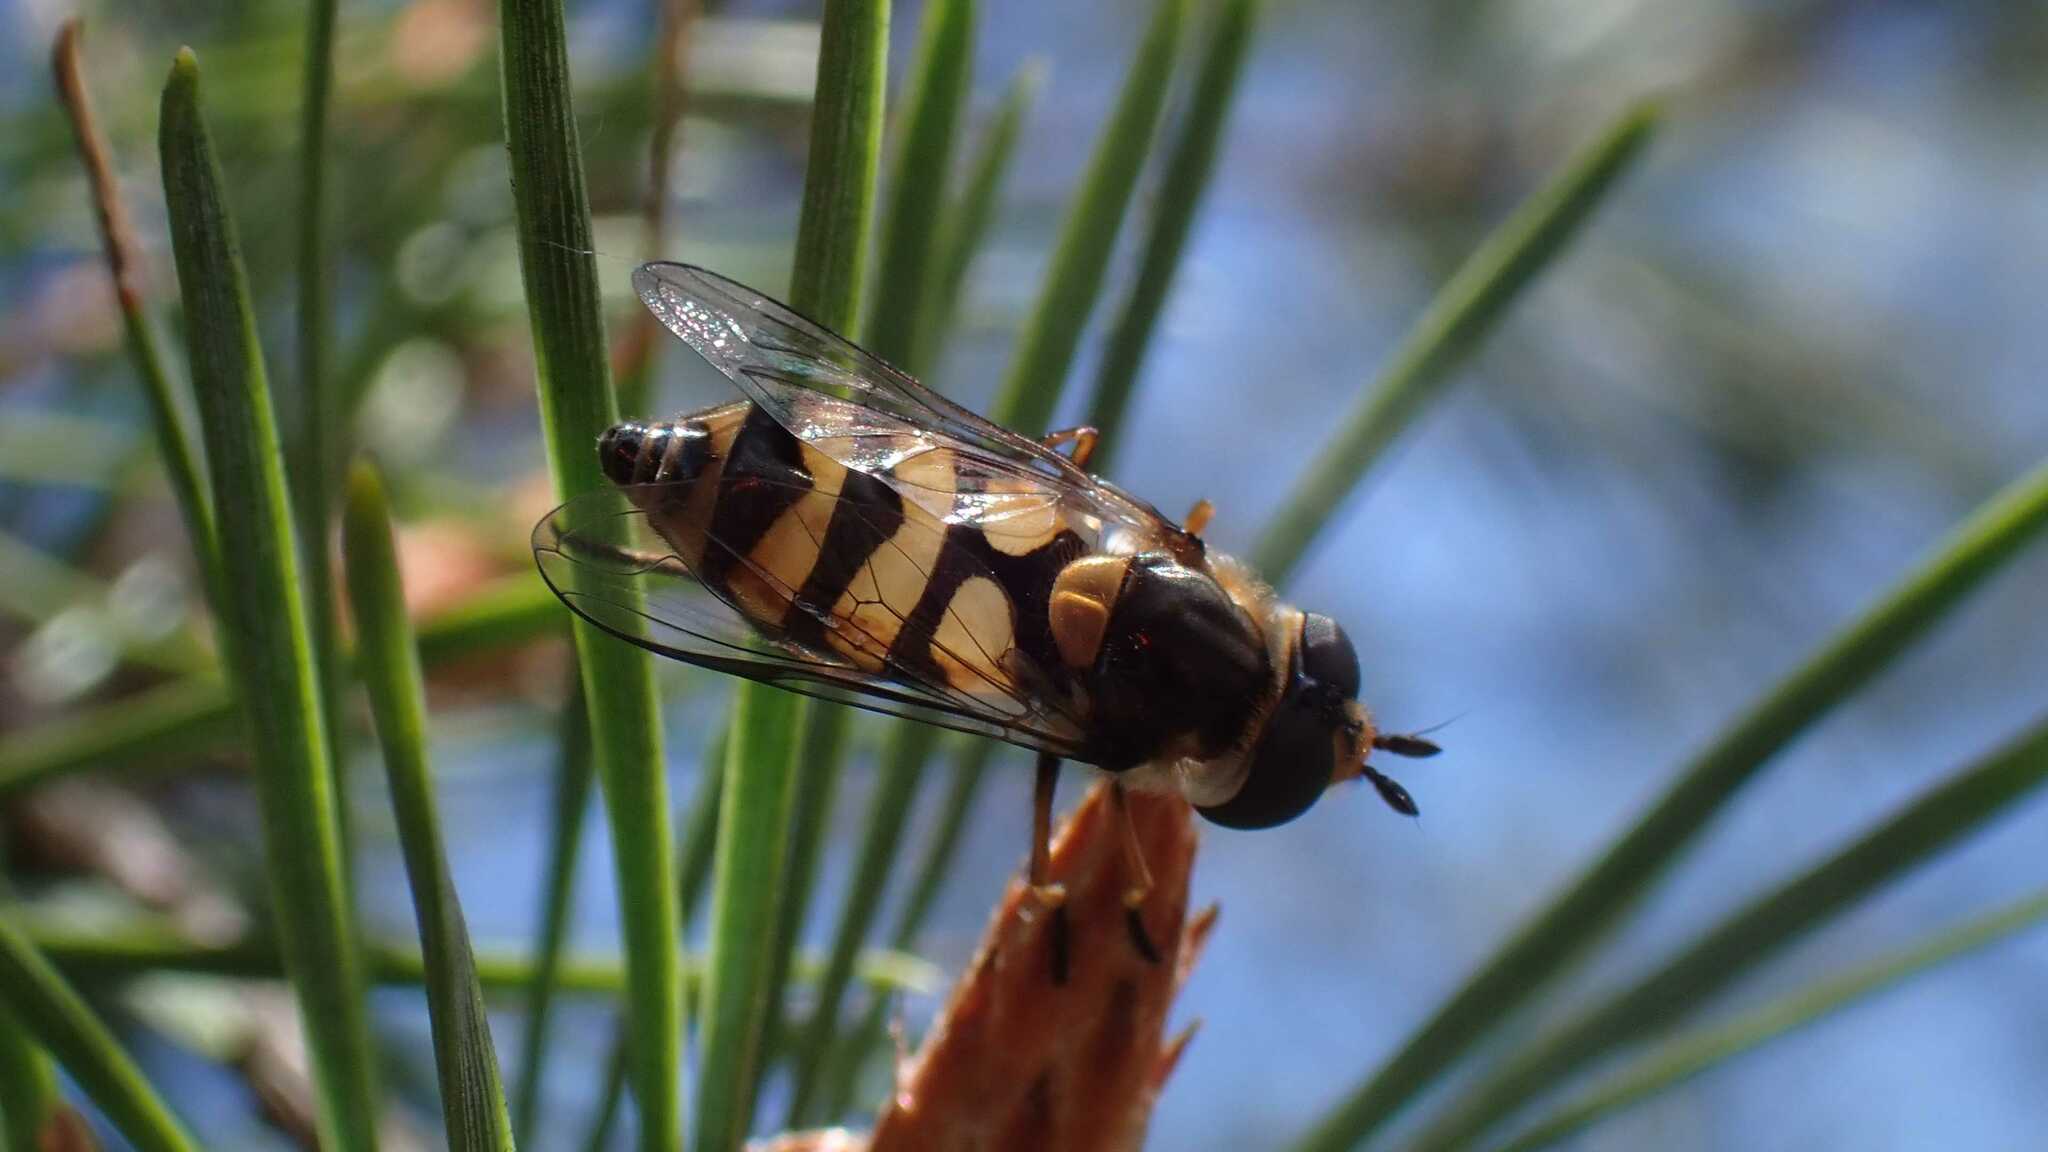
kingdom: Animalia
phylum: Arthropoda
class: Insecta
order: Diptera
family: Syrphidae
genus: Didea
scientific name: Didea fasciata
